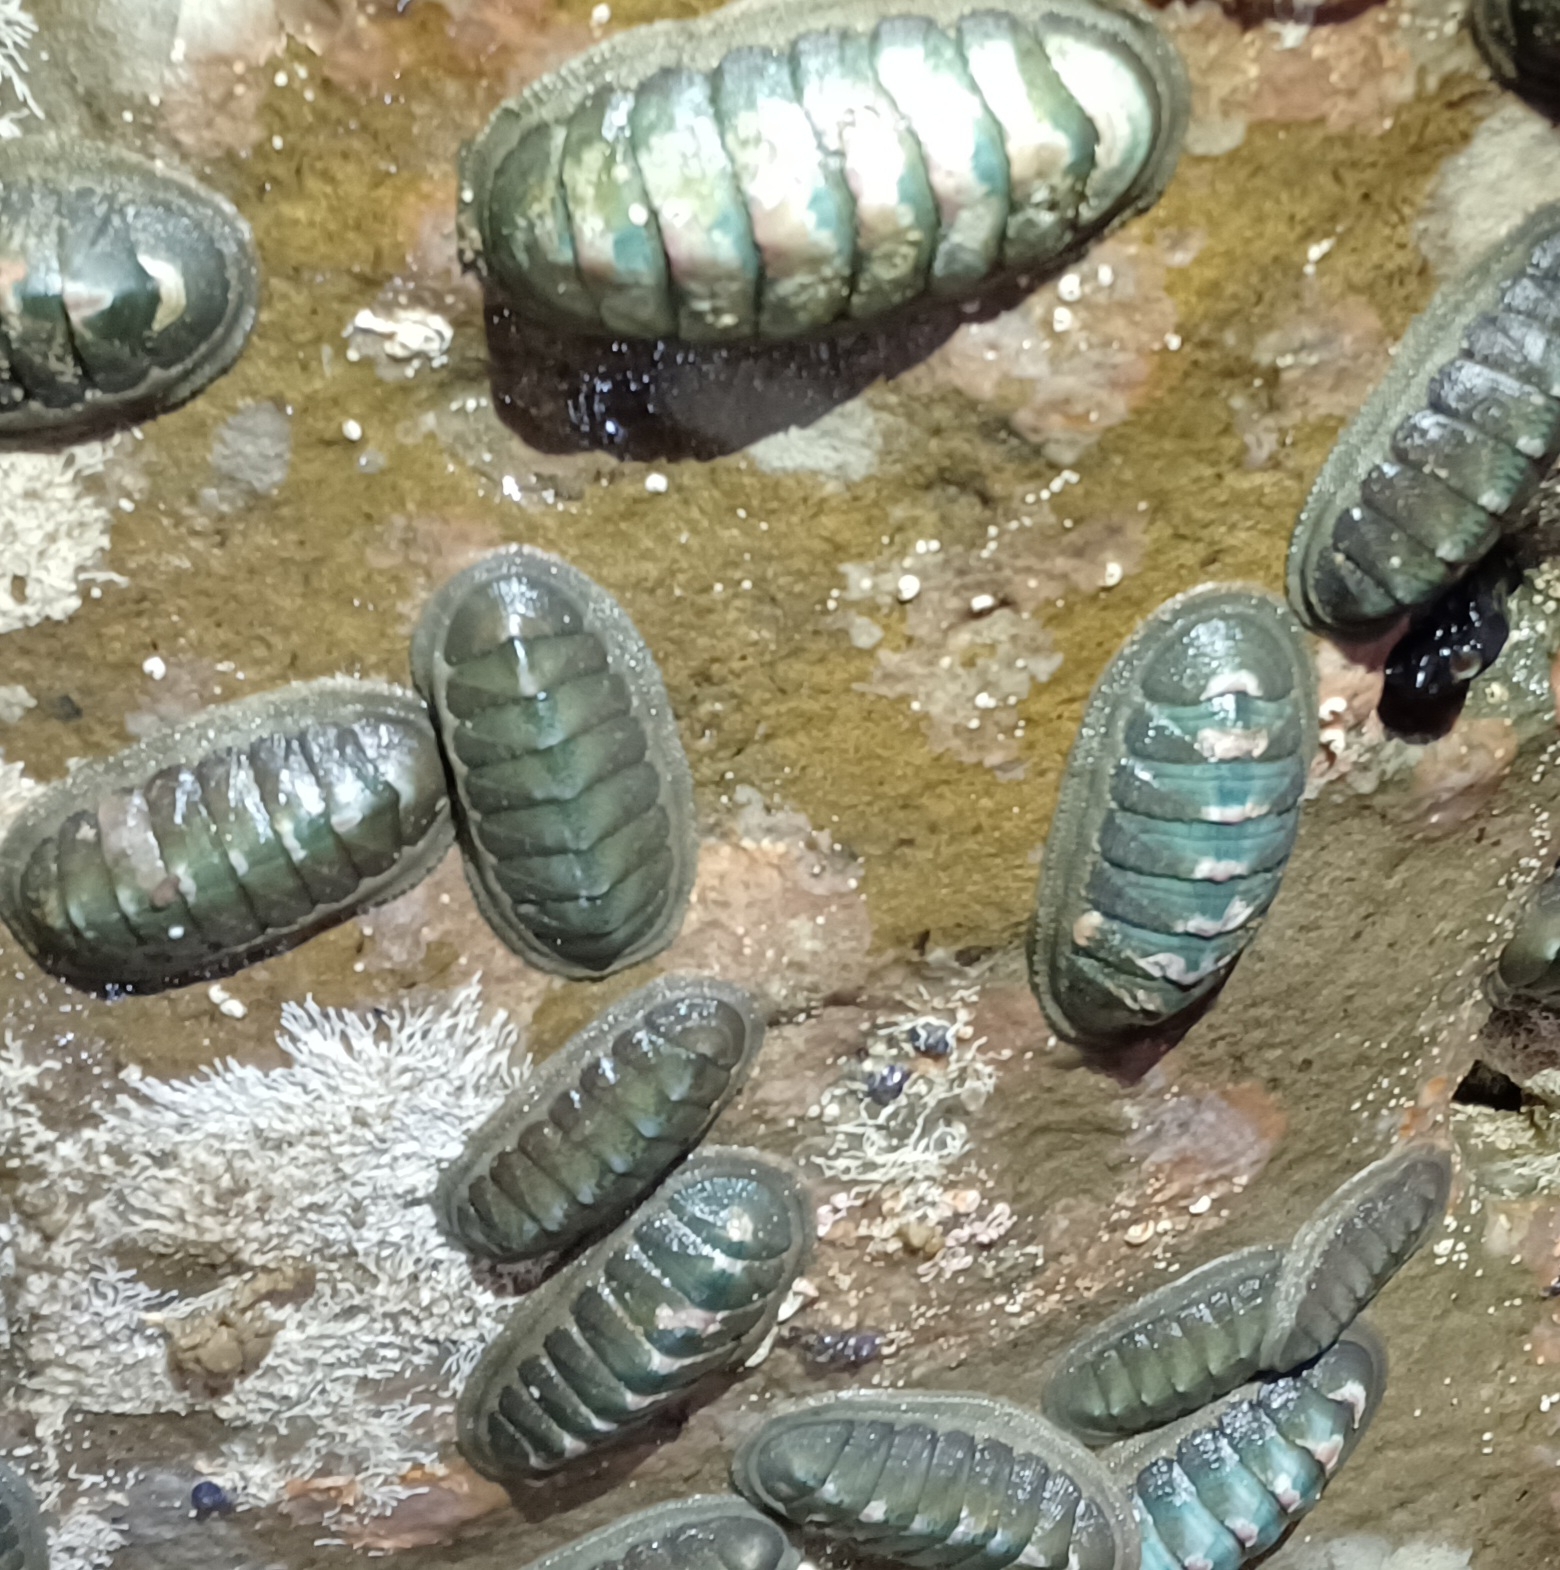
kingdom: Animalia
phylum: Mollusca
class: Polyplacophora
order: Chitonida
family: Ischnochitonidae
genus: Ischnochiton
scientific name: Ischnochiton australis
